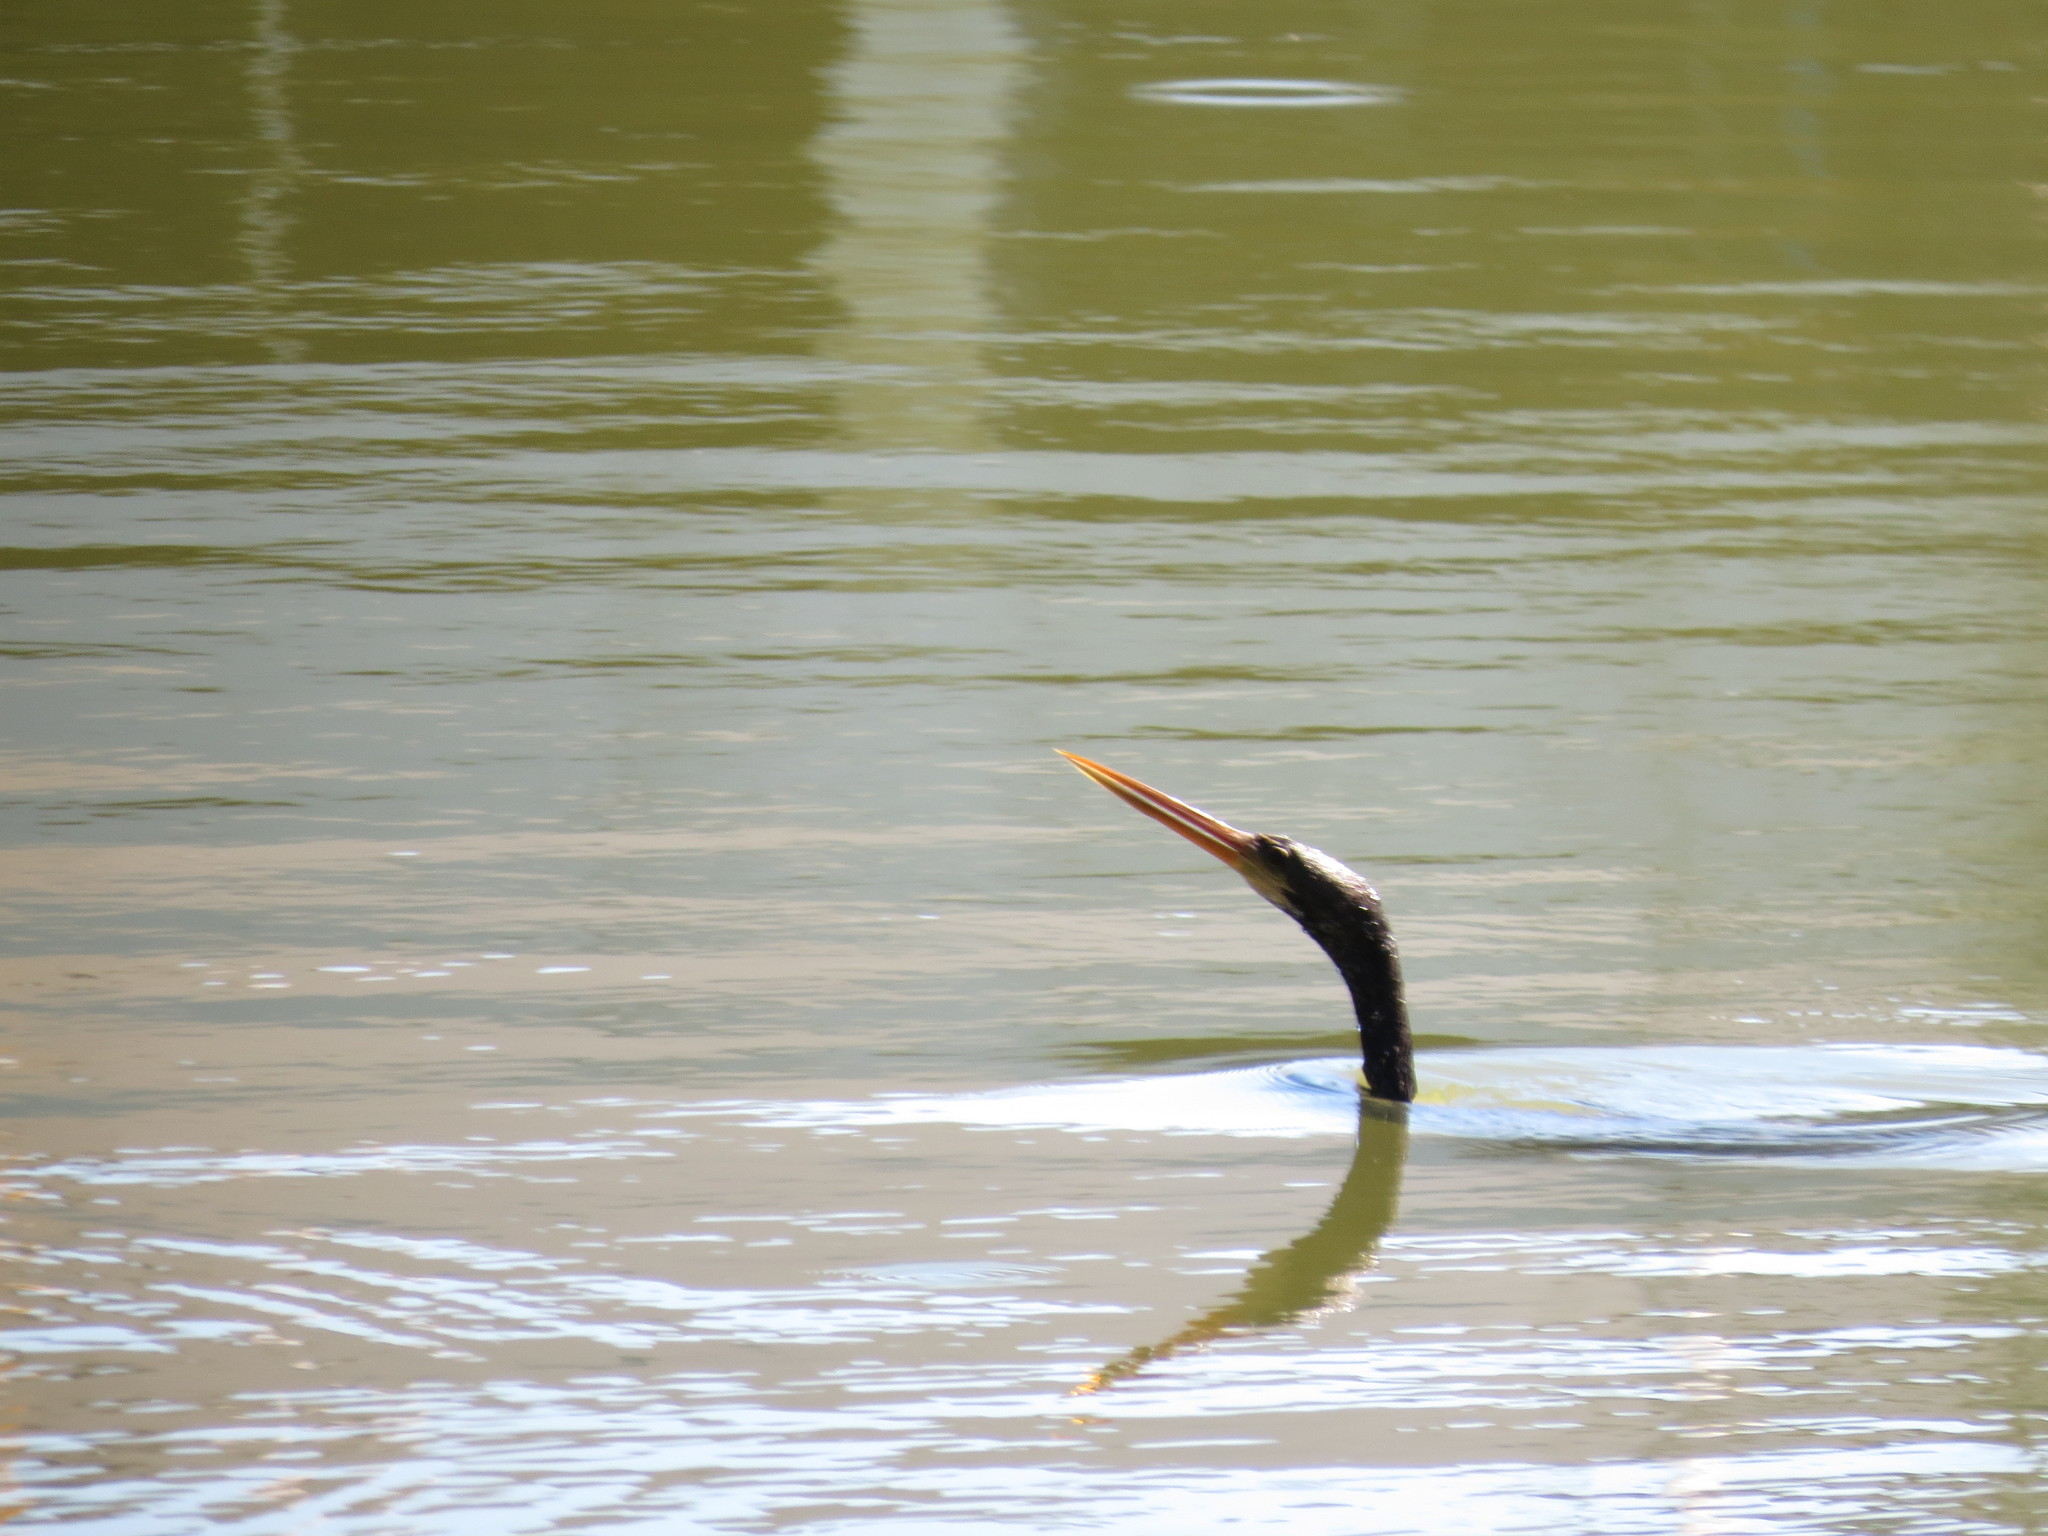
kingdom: Animalia
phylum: Chordata
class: Aves
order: Suliformes
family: Anhingidae
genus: Anhinga
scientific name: Anhinga anhinga
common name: Anhinga
